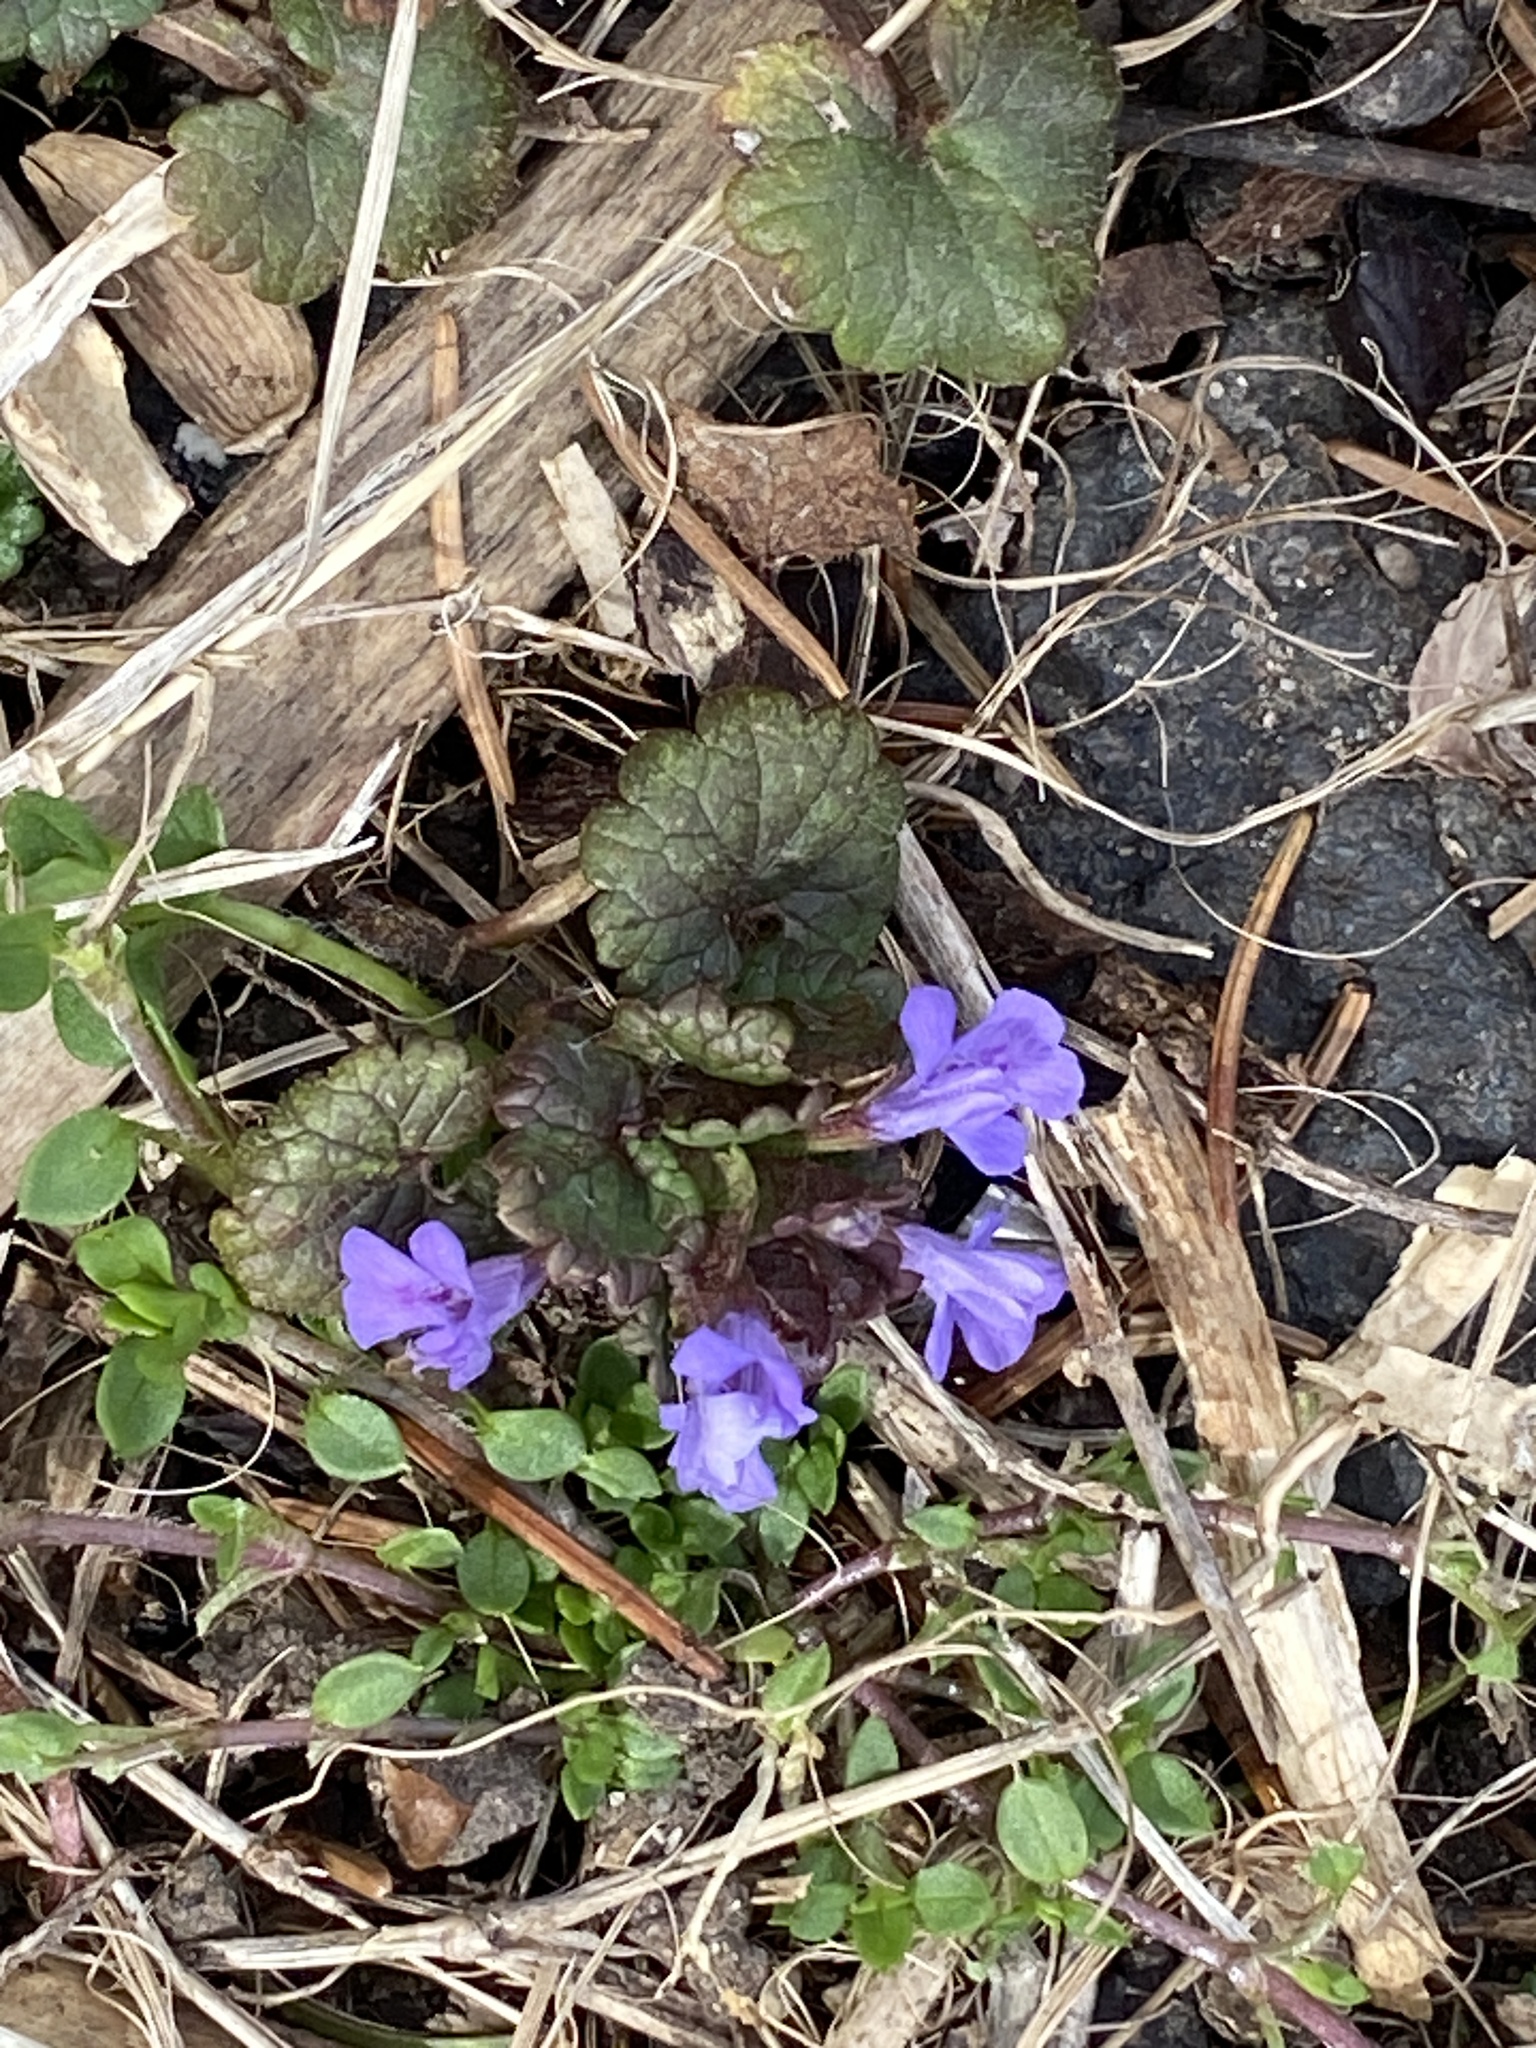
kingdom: Plantae
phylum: Tracheophyta
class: Magnoliopsida
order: Lamiales
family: Lamiaceae
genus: Glechoma
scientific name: Glechoma hederacea
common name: Ground ivy
